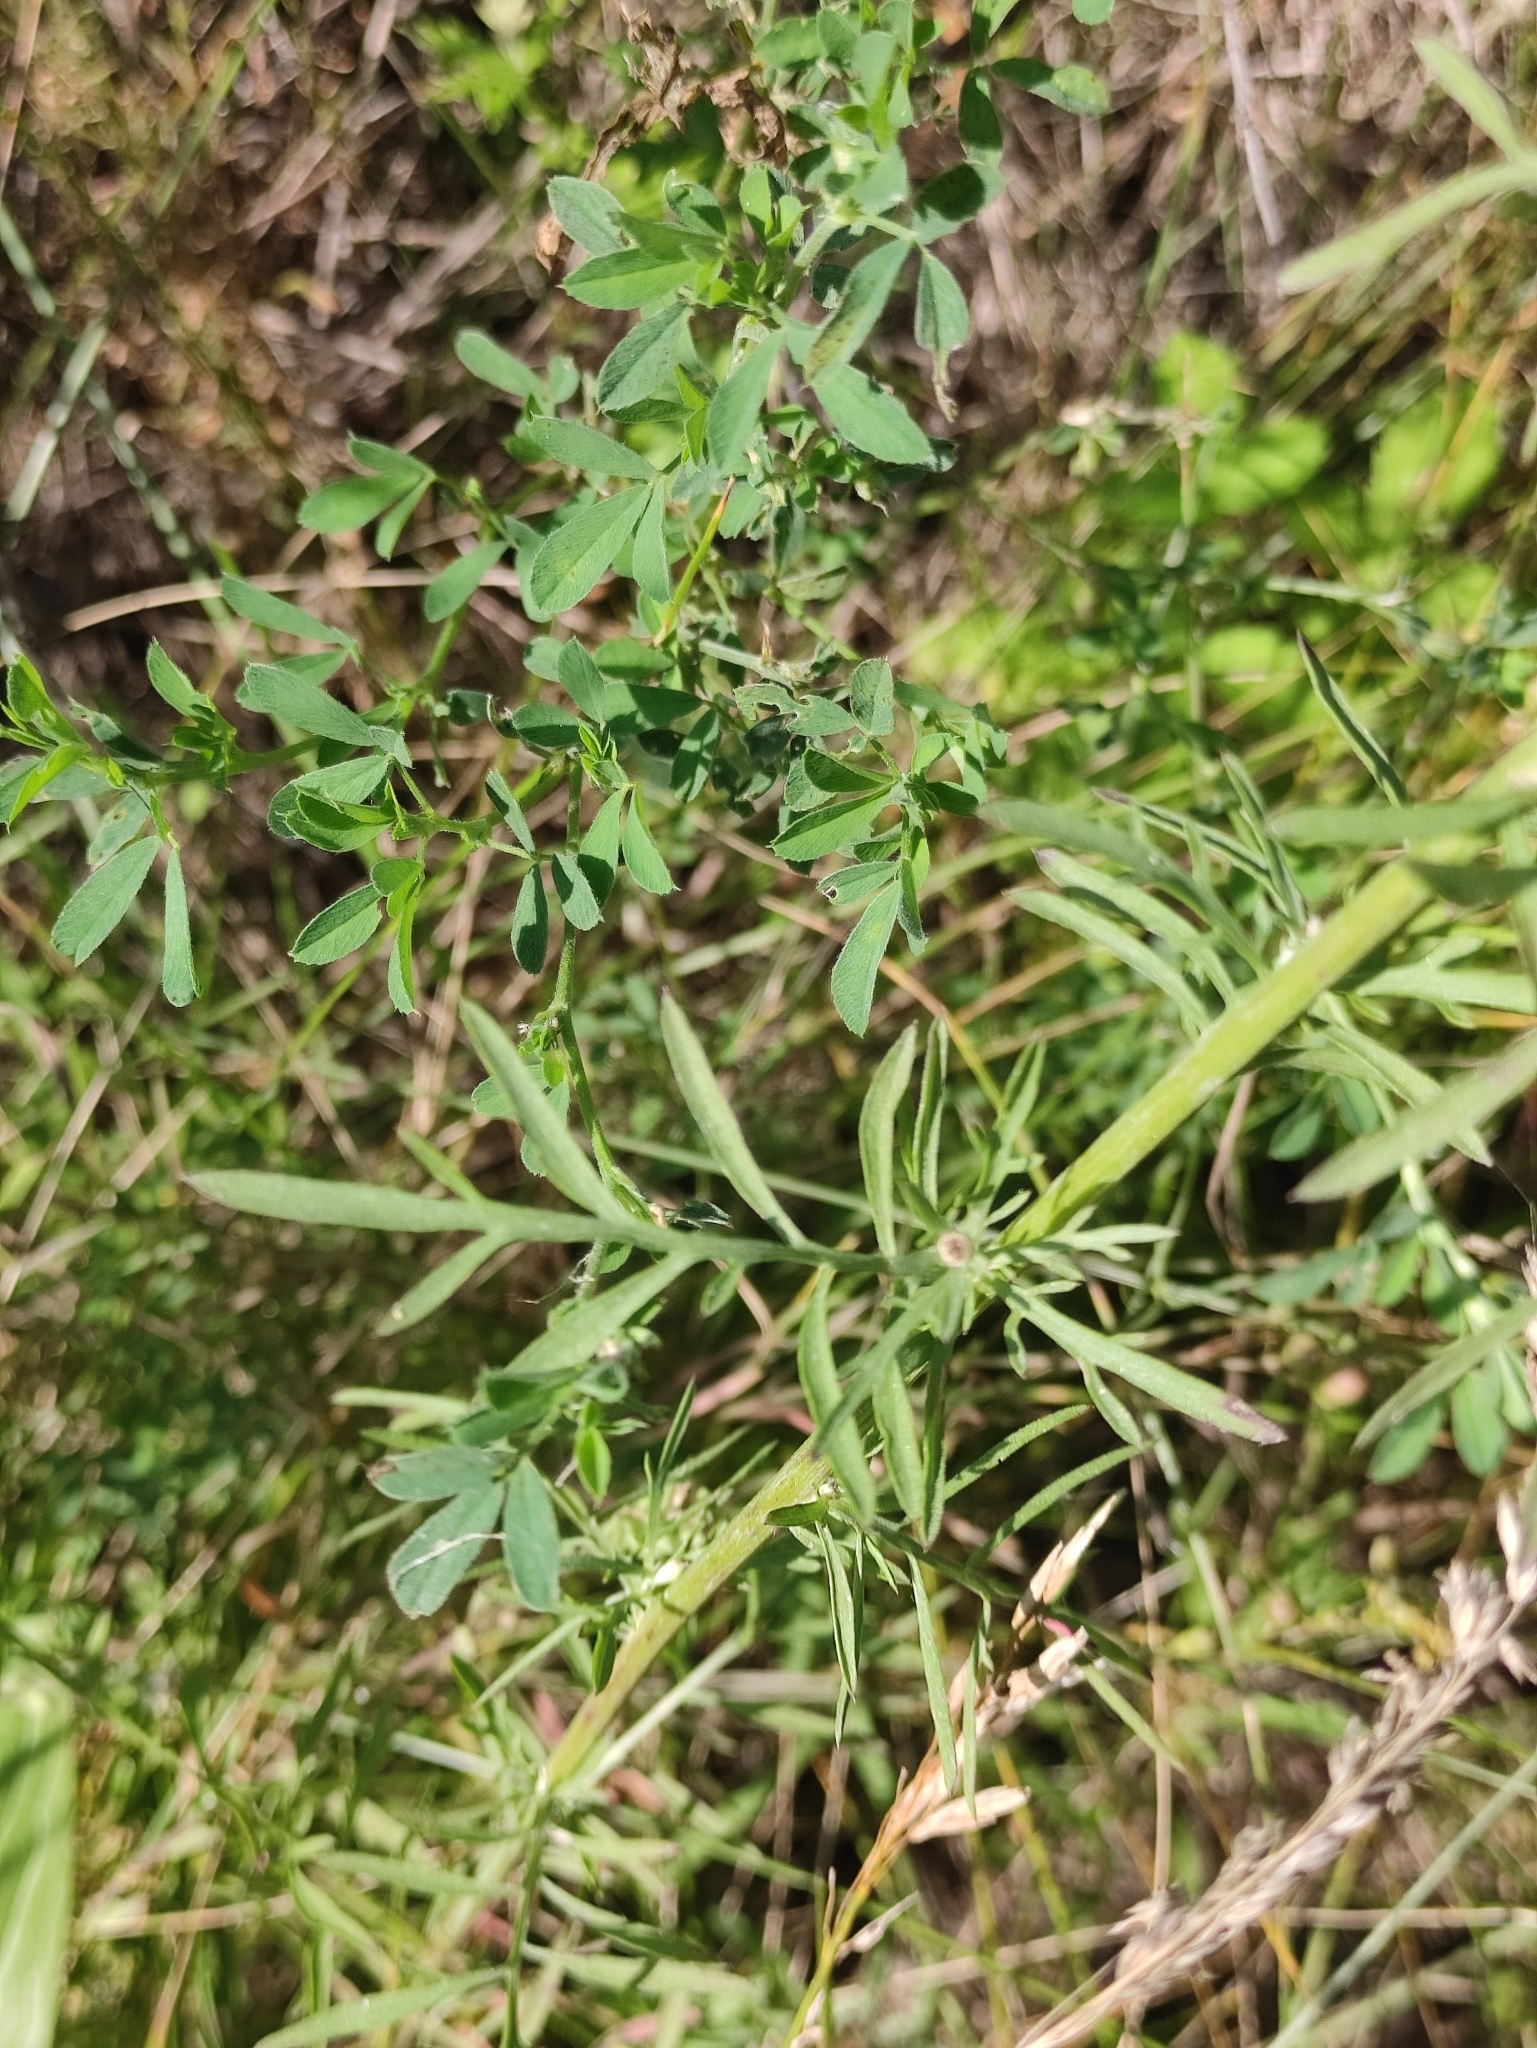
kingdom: Plantae
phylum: Tracheophyta
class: Magnoliopsida
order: Asterales
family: Asteraceae
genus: Centaurea
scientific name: Centaurea stoebe
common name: Spotted knapweed
